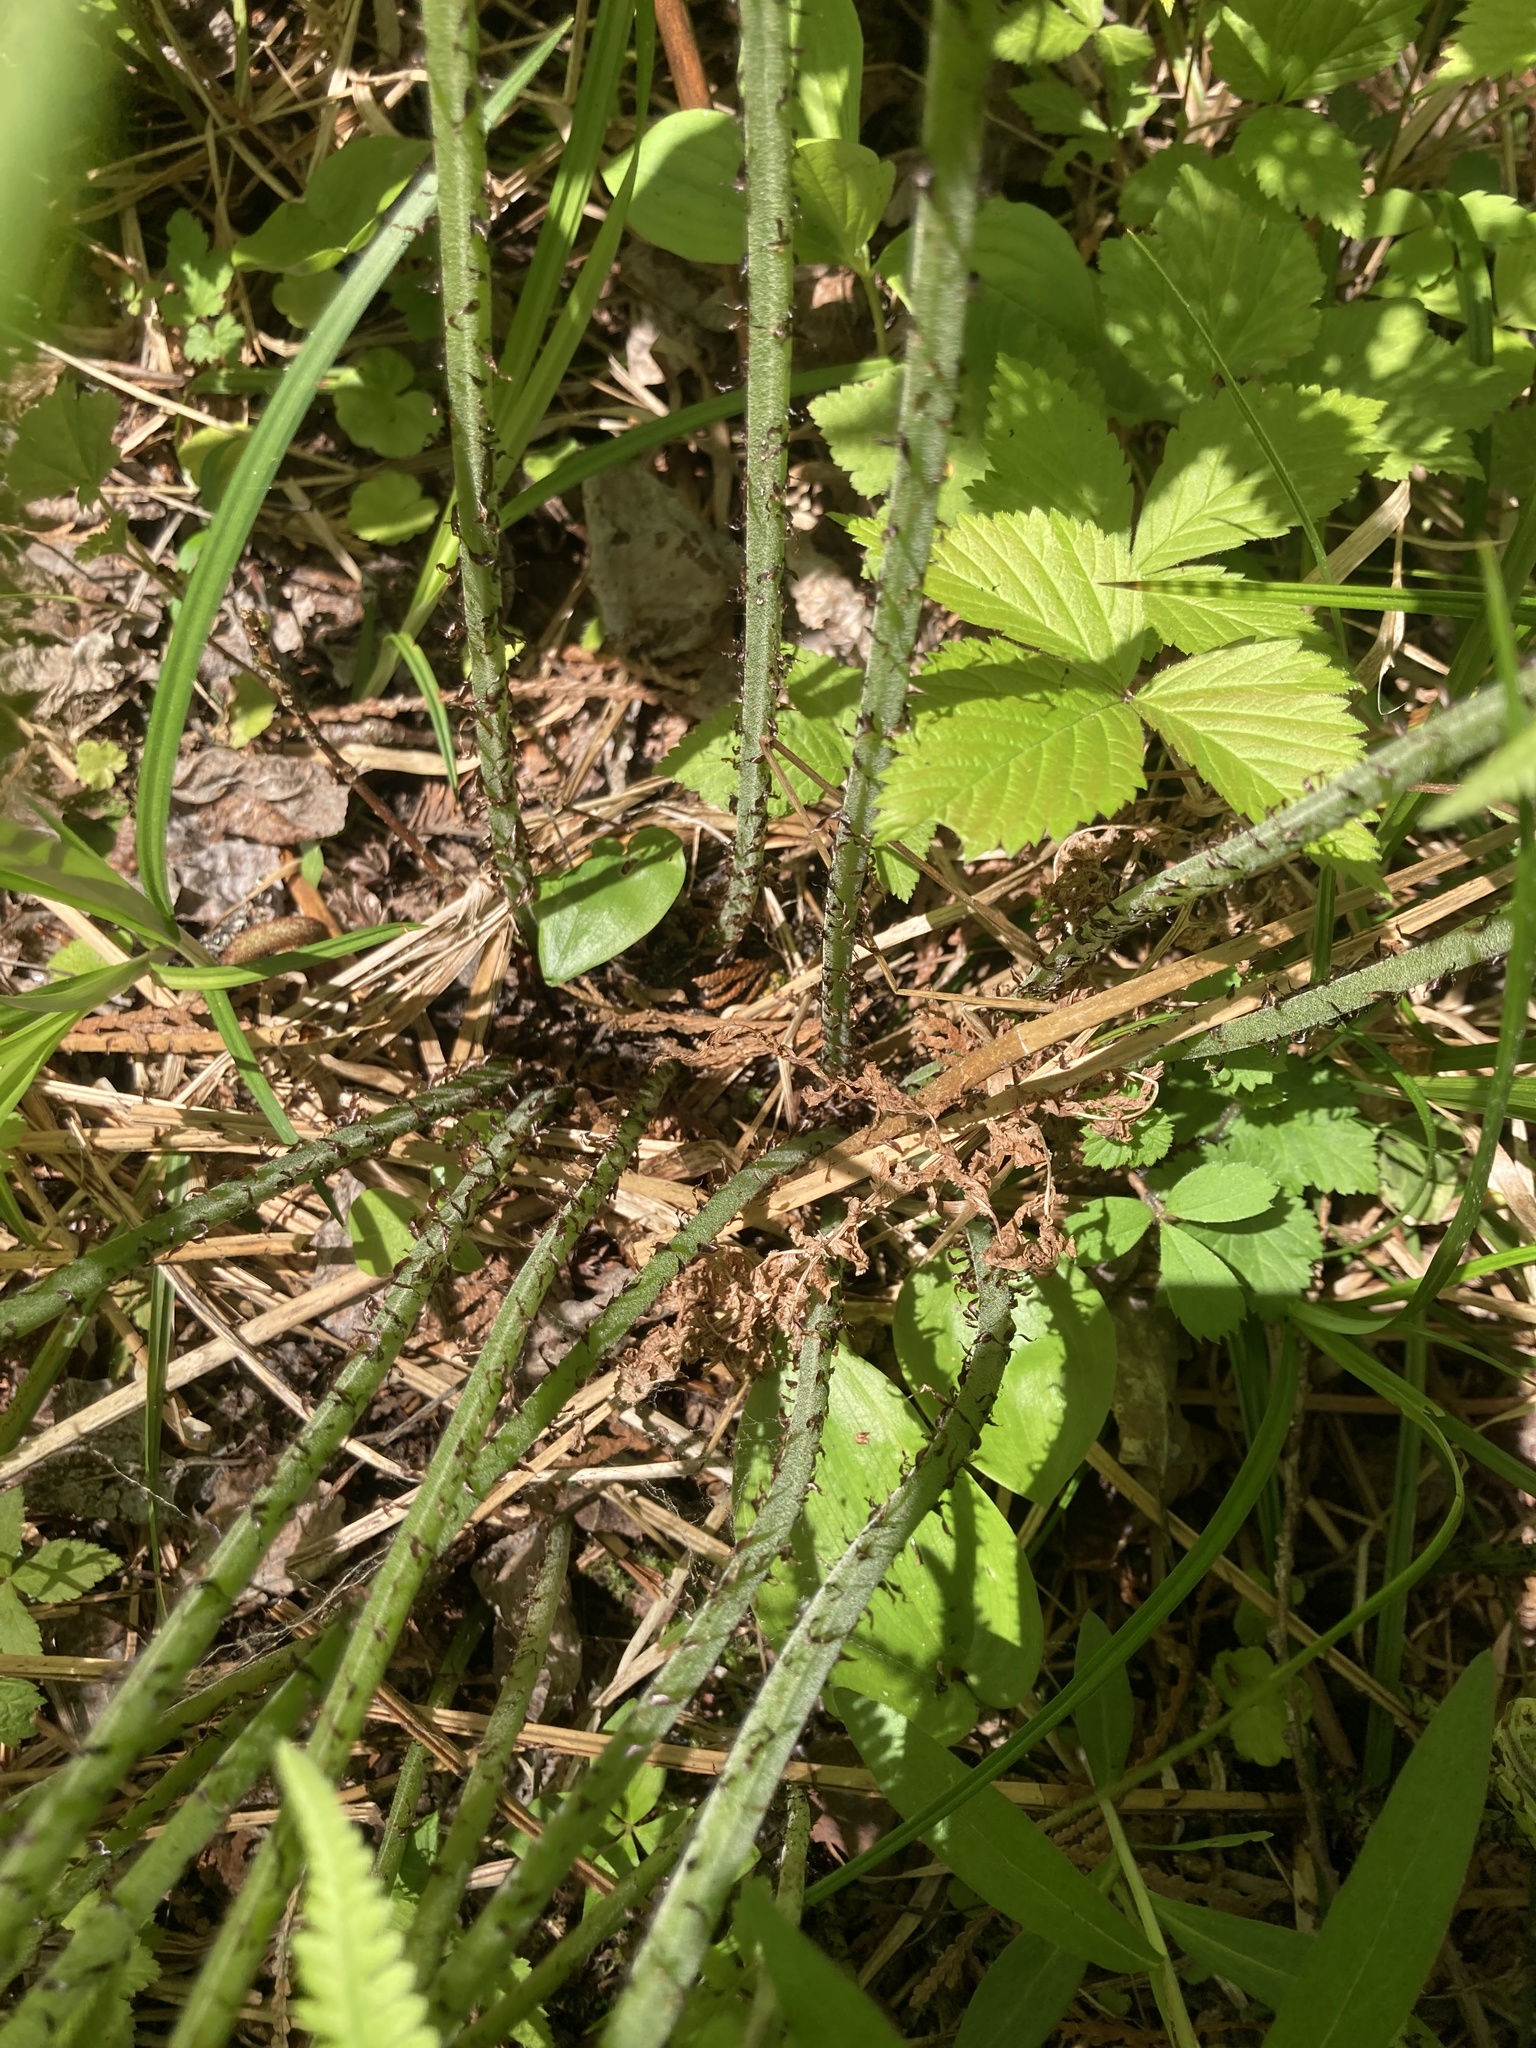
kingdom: Plantae
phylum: Tracheophyta
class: Polypodiopsida
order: Polypodiales
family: Athyriaceae
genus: Athyrium
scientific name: Athyrium angustum
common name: Northern lady fern
